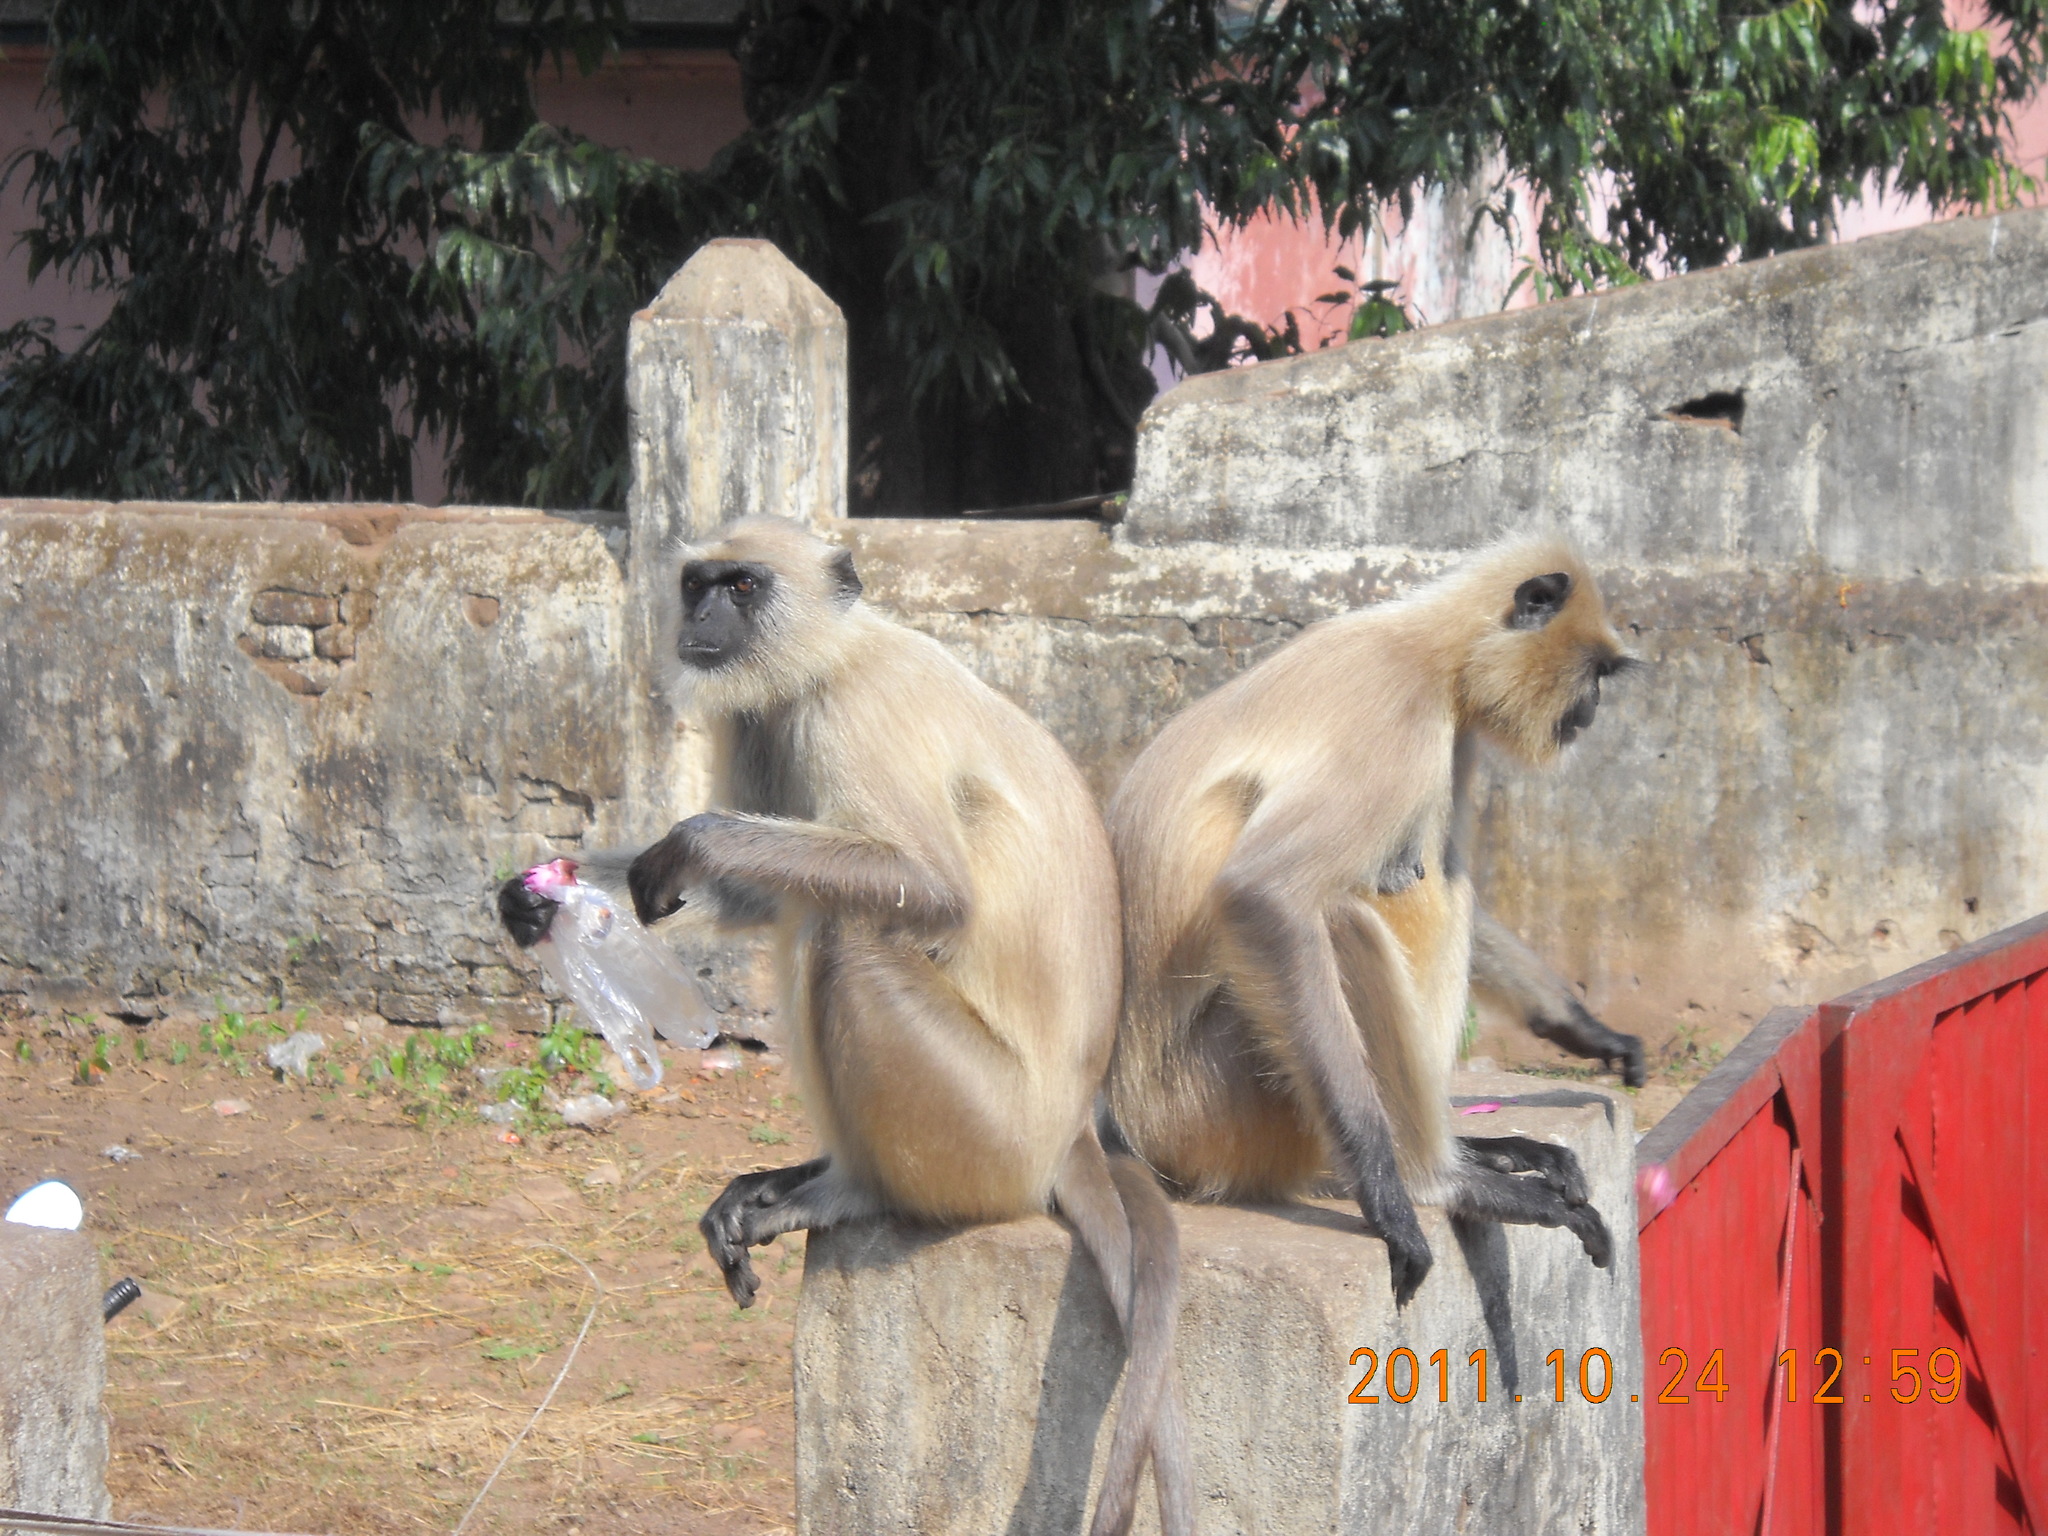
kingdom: Animalia
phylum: Chordata
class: Mammalia
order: Primates
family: Cercopithecidae
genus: Semnopithecus
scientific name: Semnopithecus entellus
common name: Northern plains gray langur
